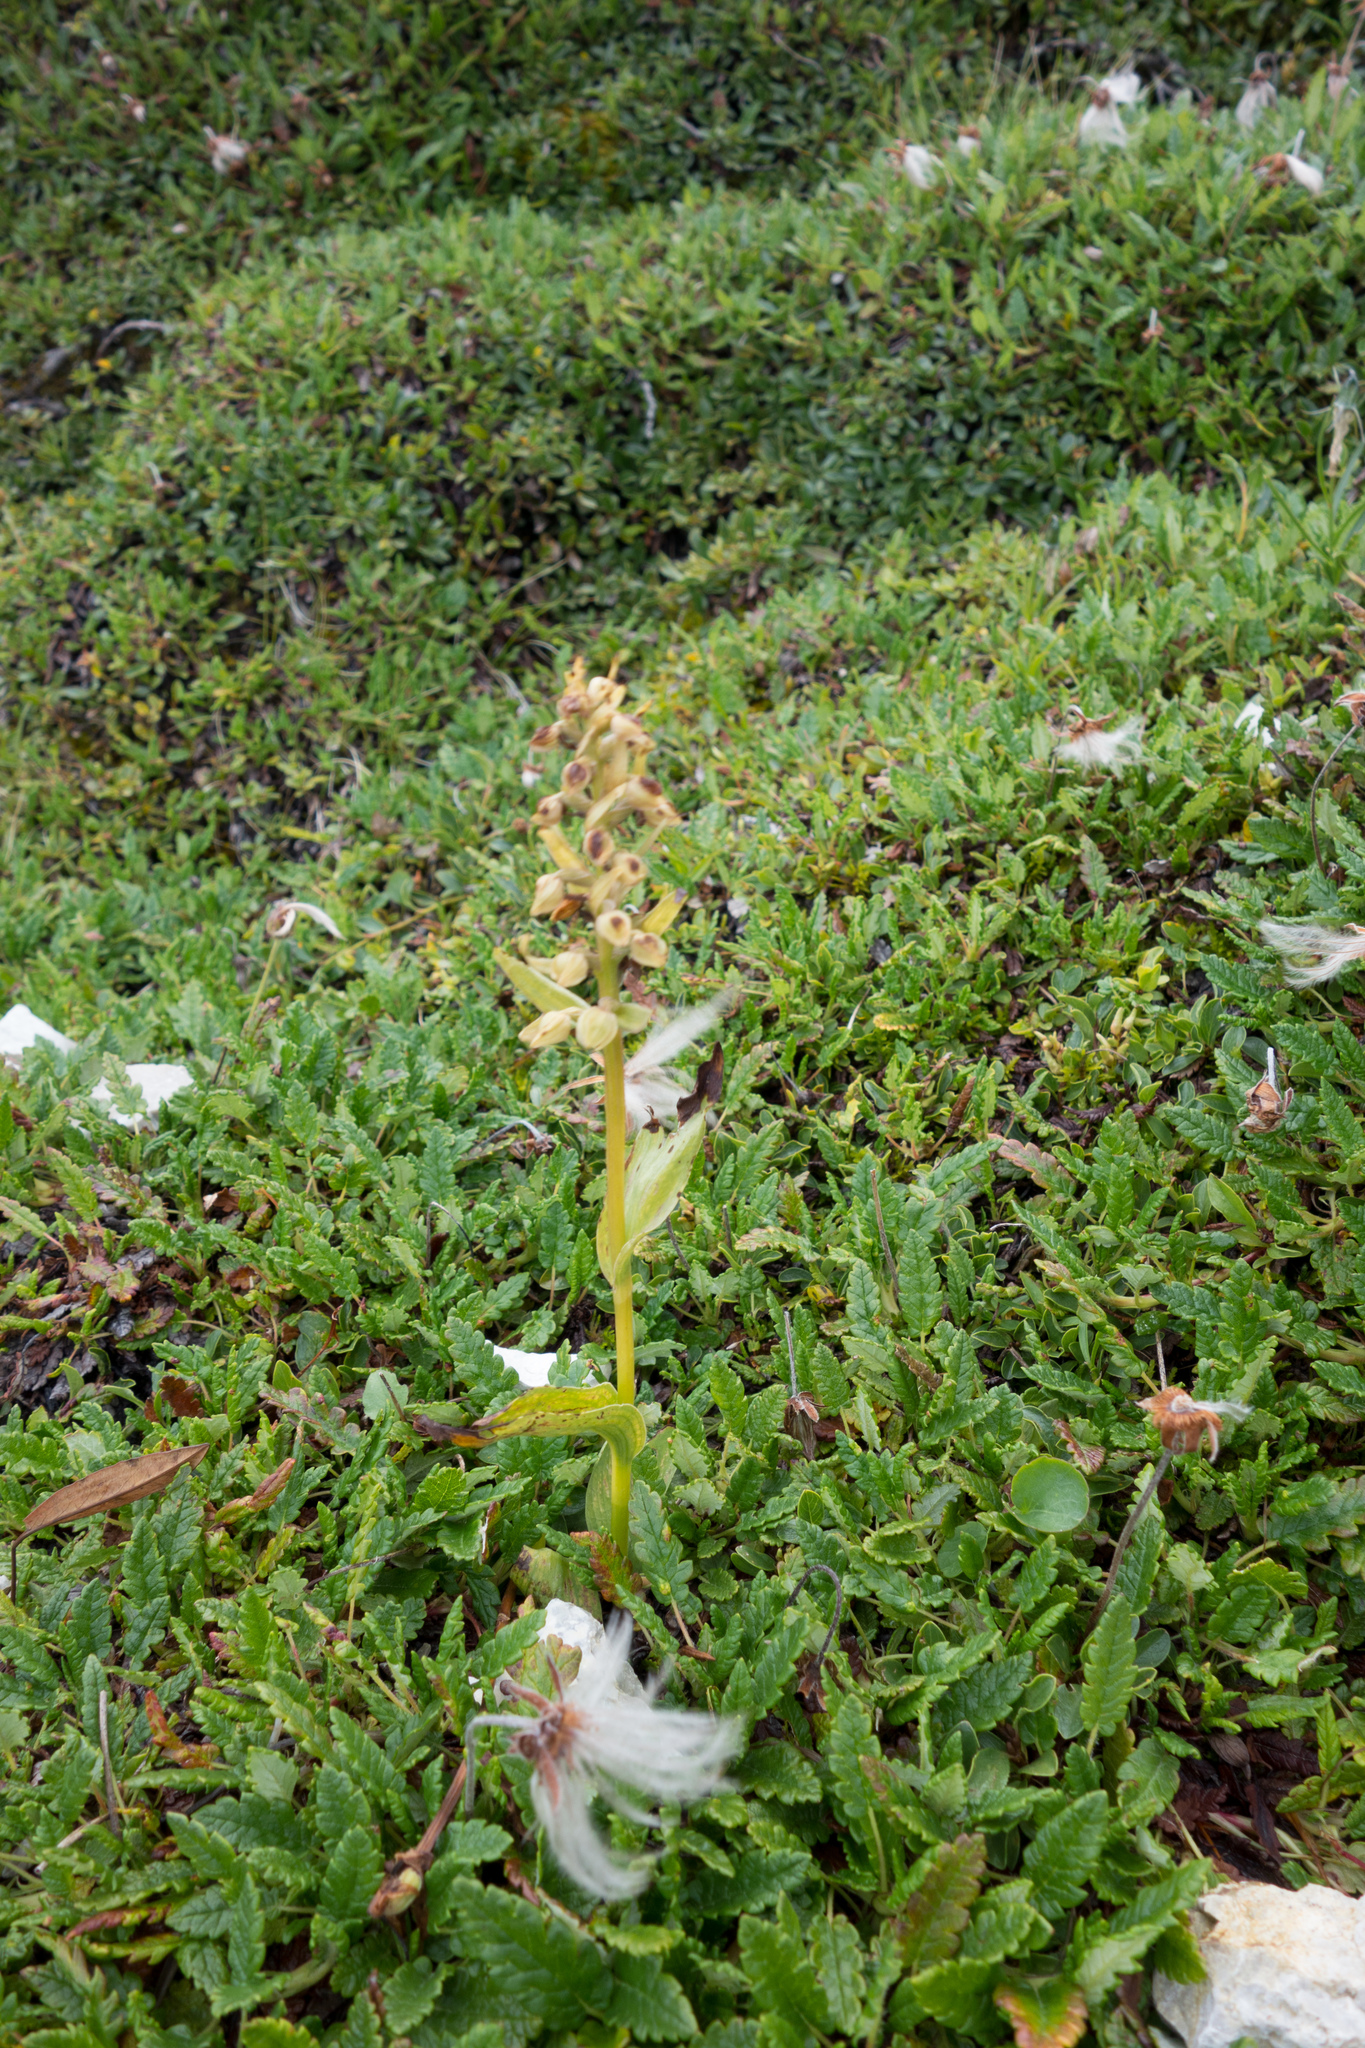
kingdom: Plantae
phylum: Tracheophyta
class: Liliopsida
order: Asparagales
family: Orchidaceae
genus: Dactylorhiza
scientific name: Dactylorhiza viridis
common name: Longbract frog orchid
